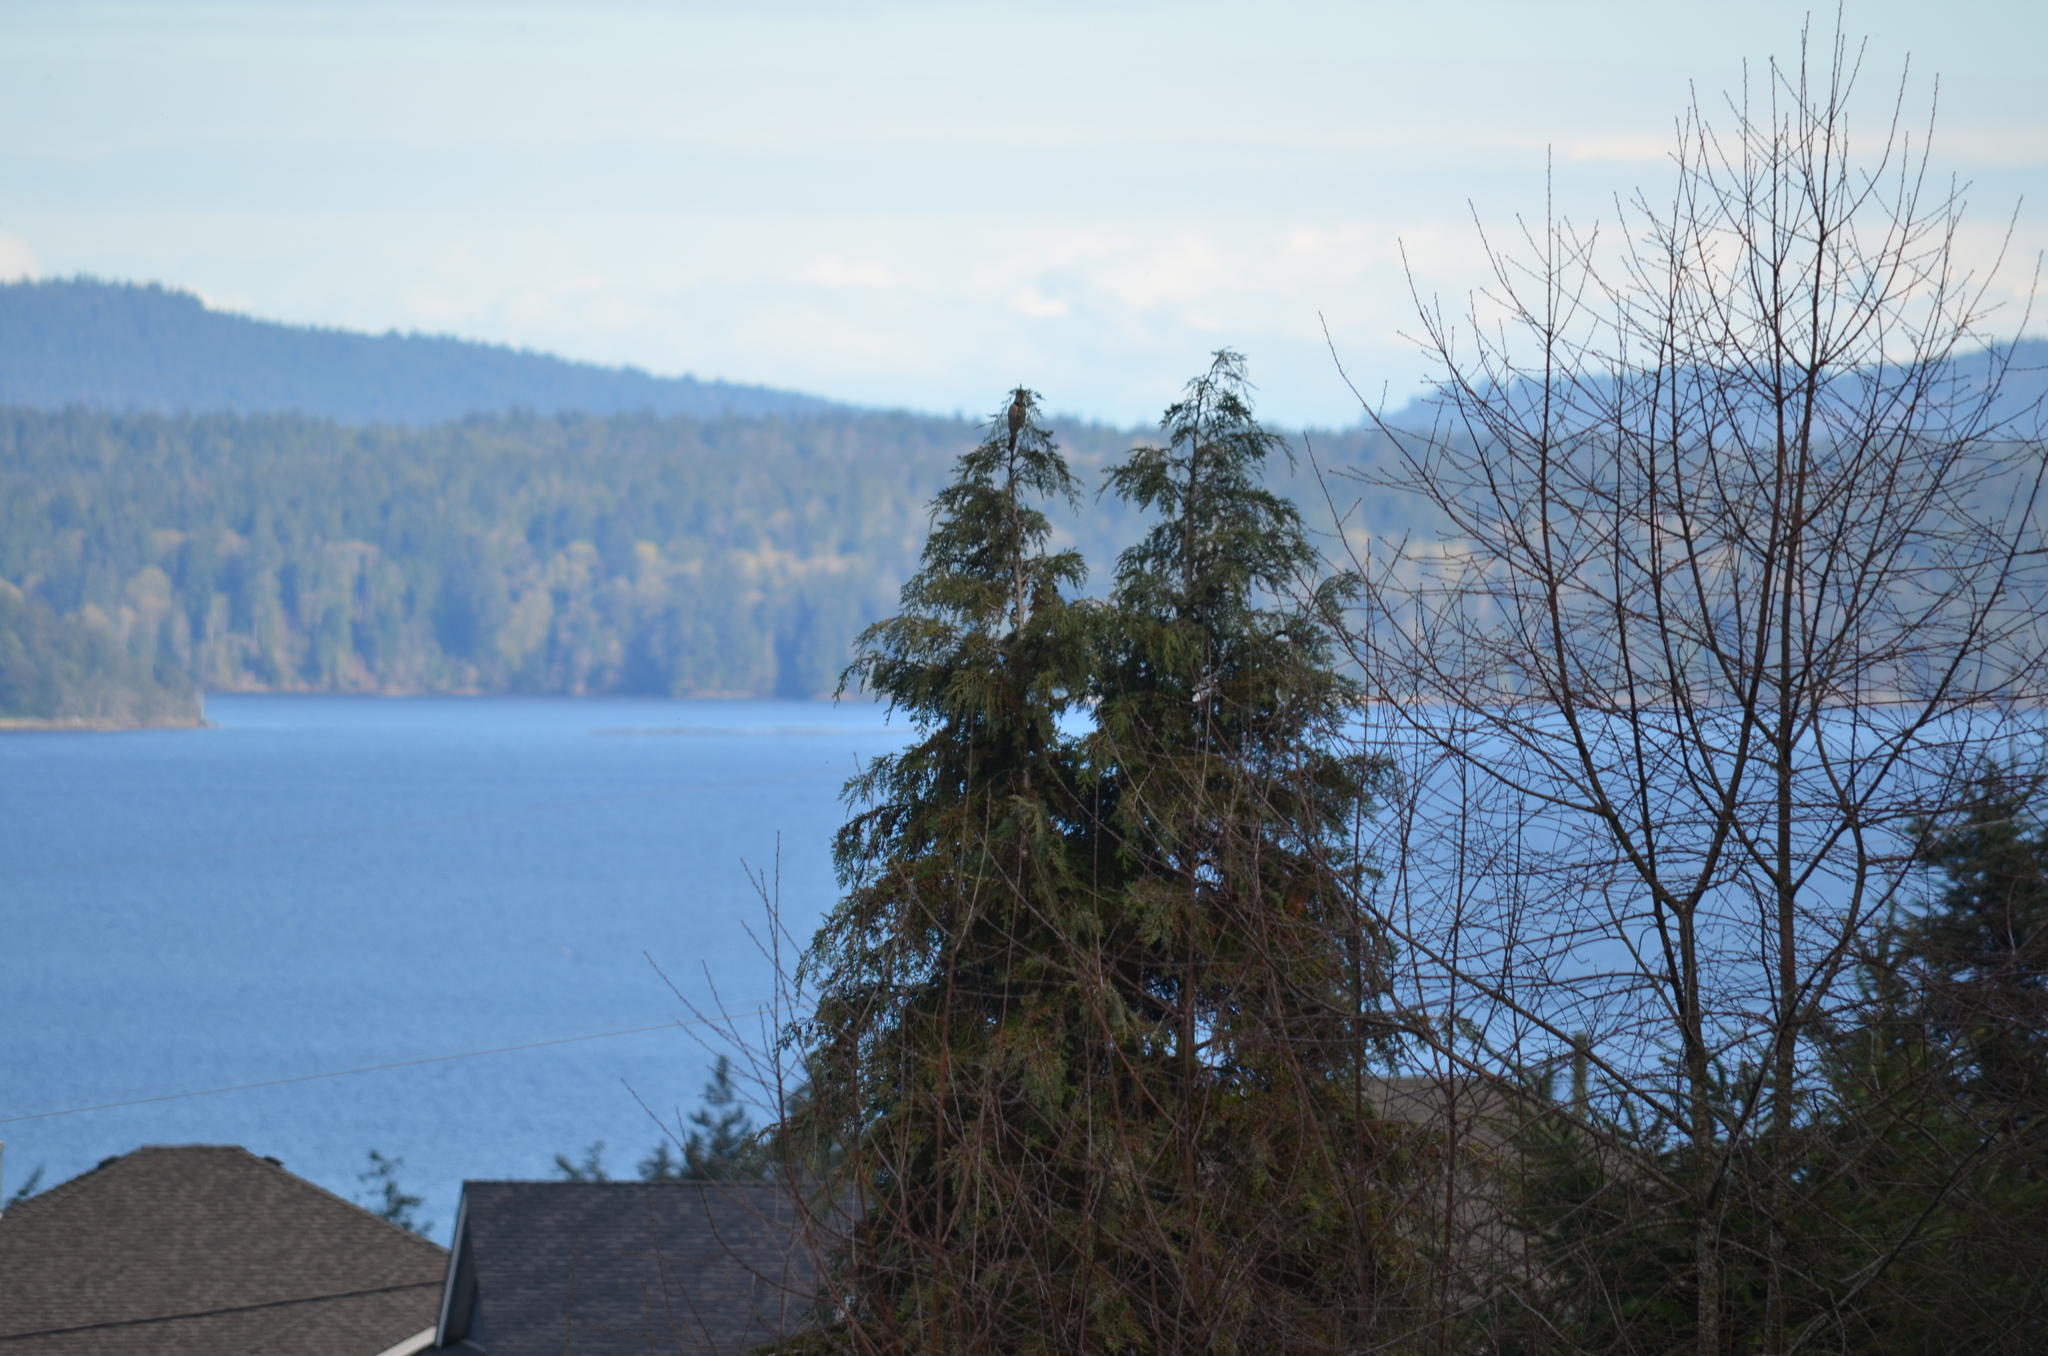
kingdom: Animalia
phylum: Chordata
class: Aves
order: Piciformes
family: Picidae
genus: Colaptes
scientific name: Colaptes auratus
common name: Northern flicker
